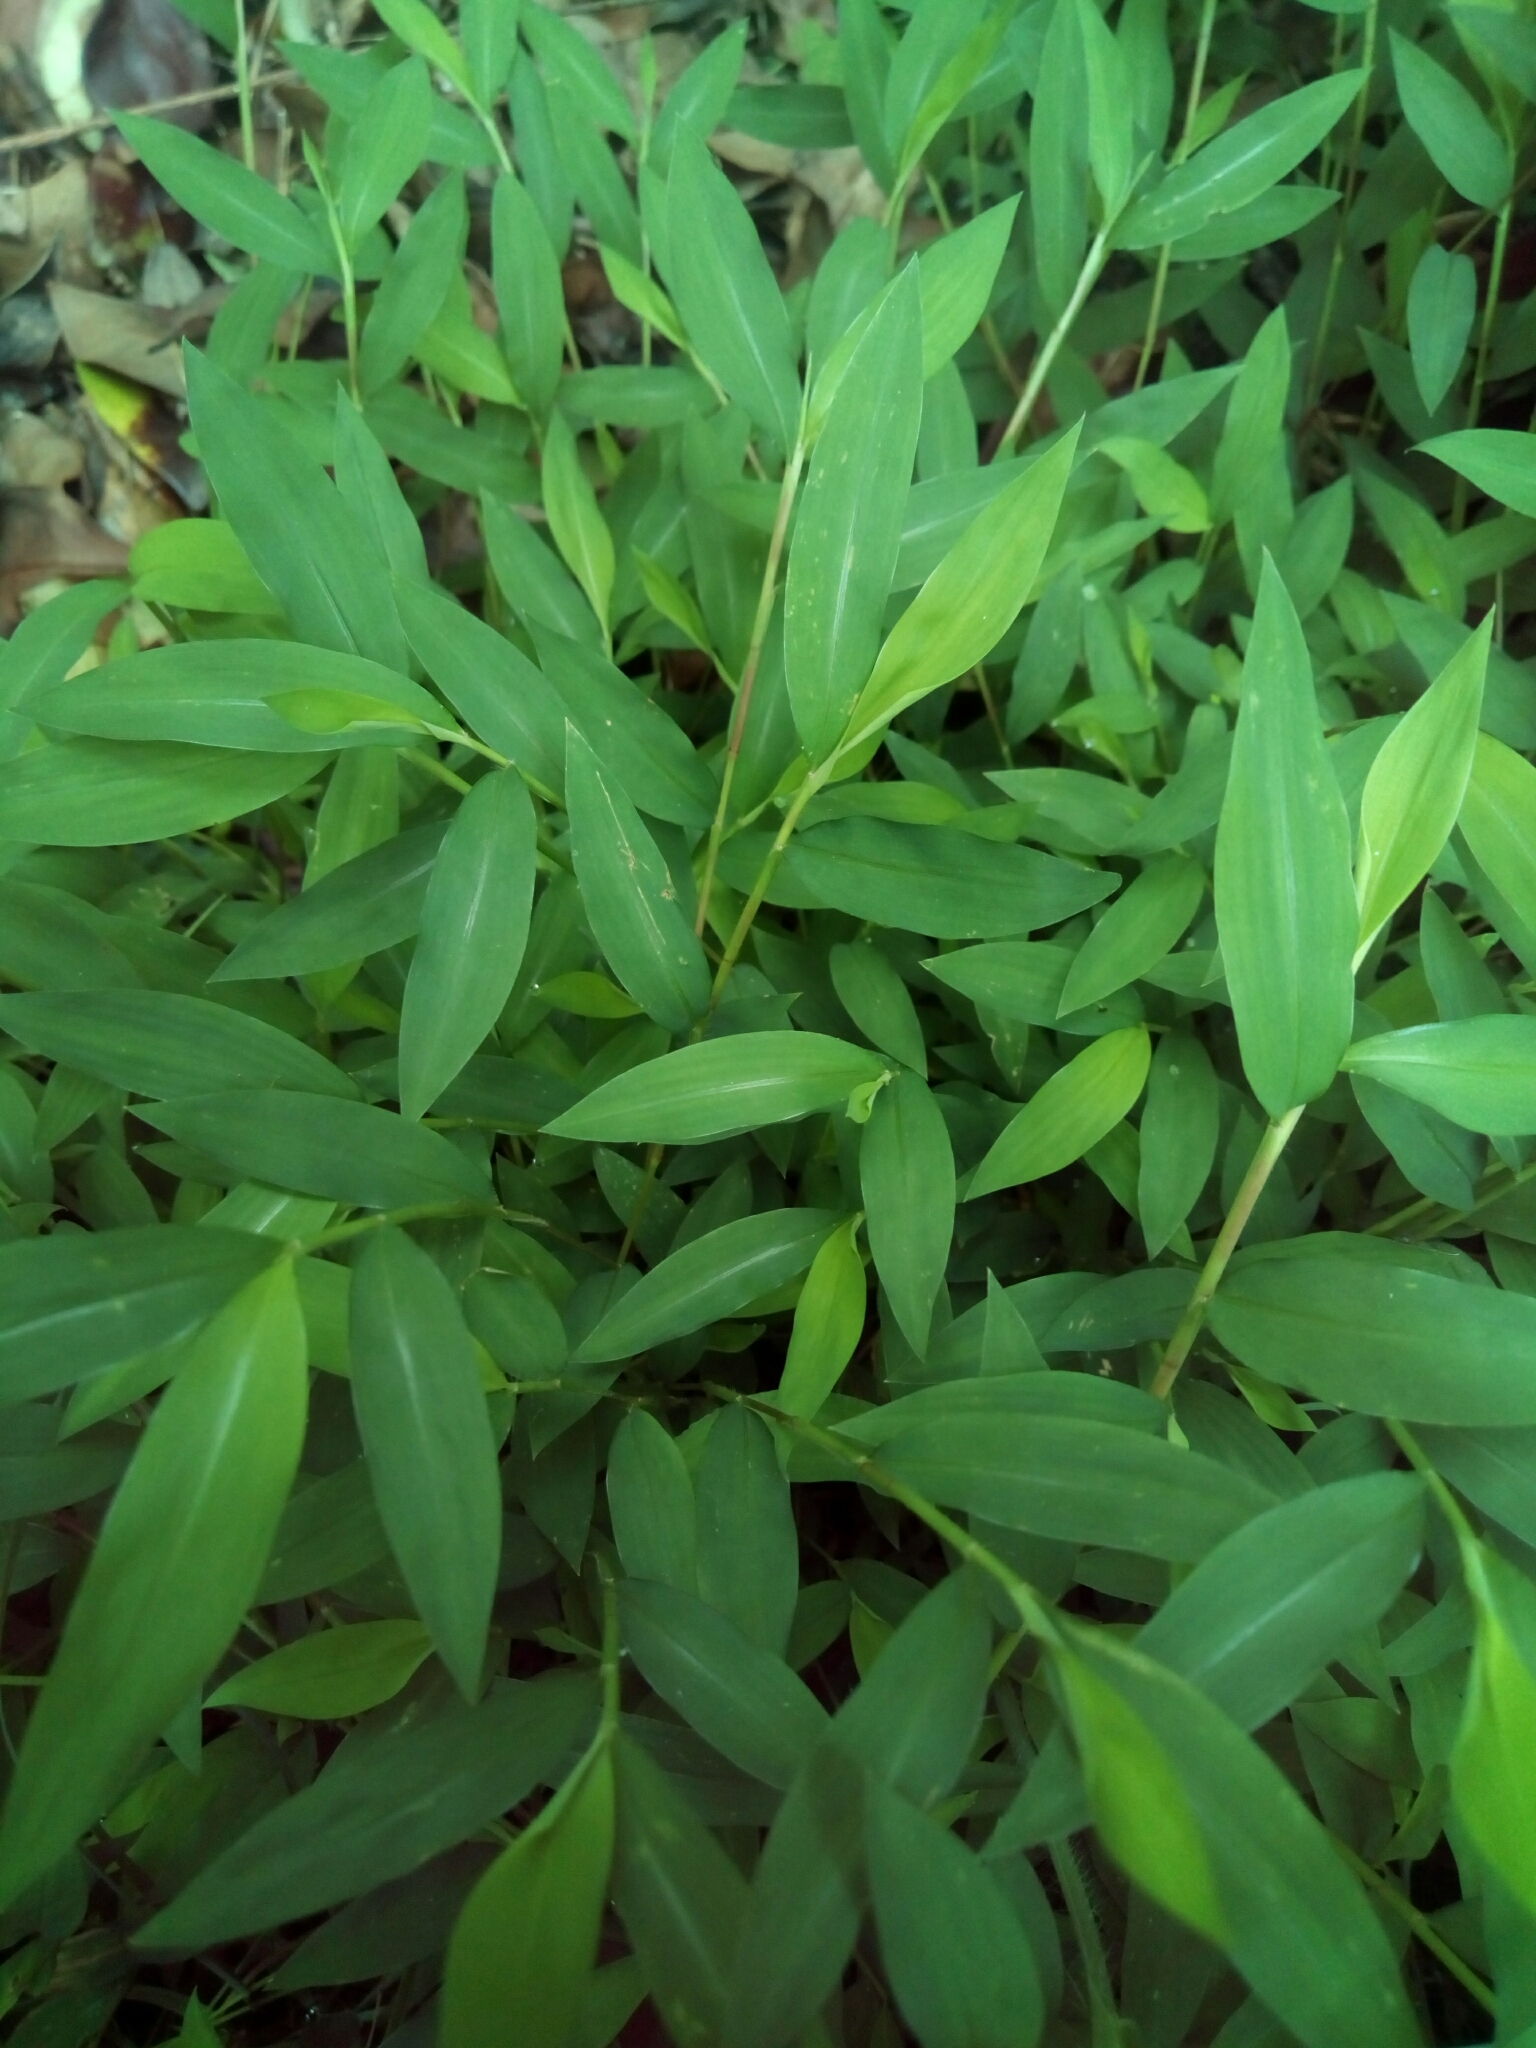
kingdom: Plantae
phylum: Tracheophyta
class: Liliopsida
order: Poales
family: Poaceae
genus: Microstegium
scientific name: Microstegium vimineum
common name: Japanese stiltgrass
